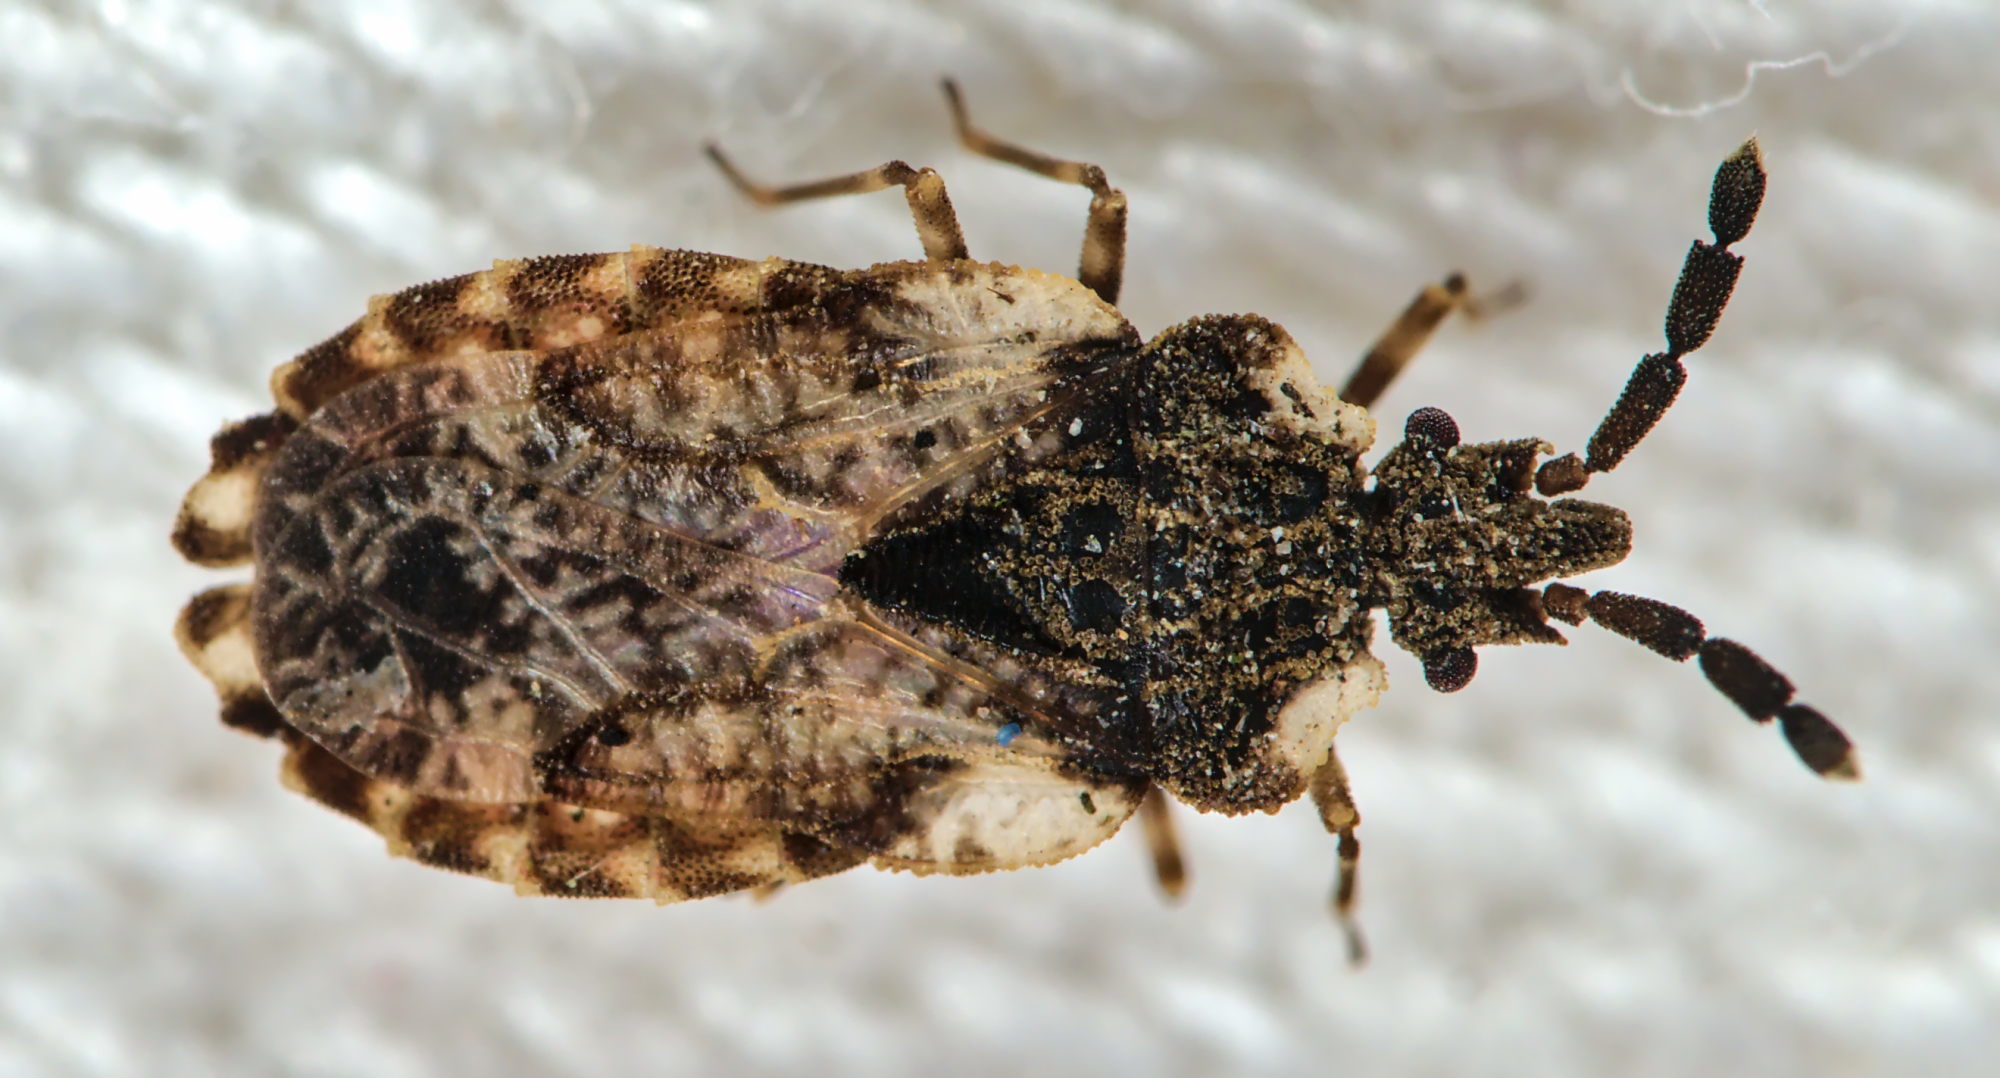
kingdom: Animalia
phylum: Arthropoda
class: Insecta
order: Hemiptera
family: Aradidae
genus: Aradus
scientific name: Aradus depressus
